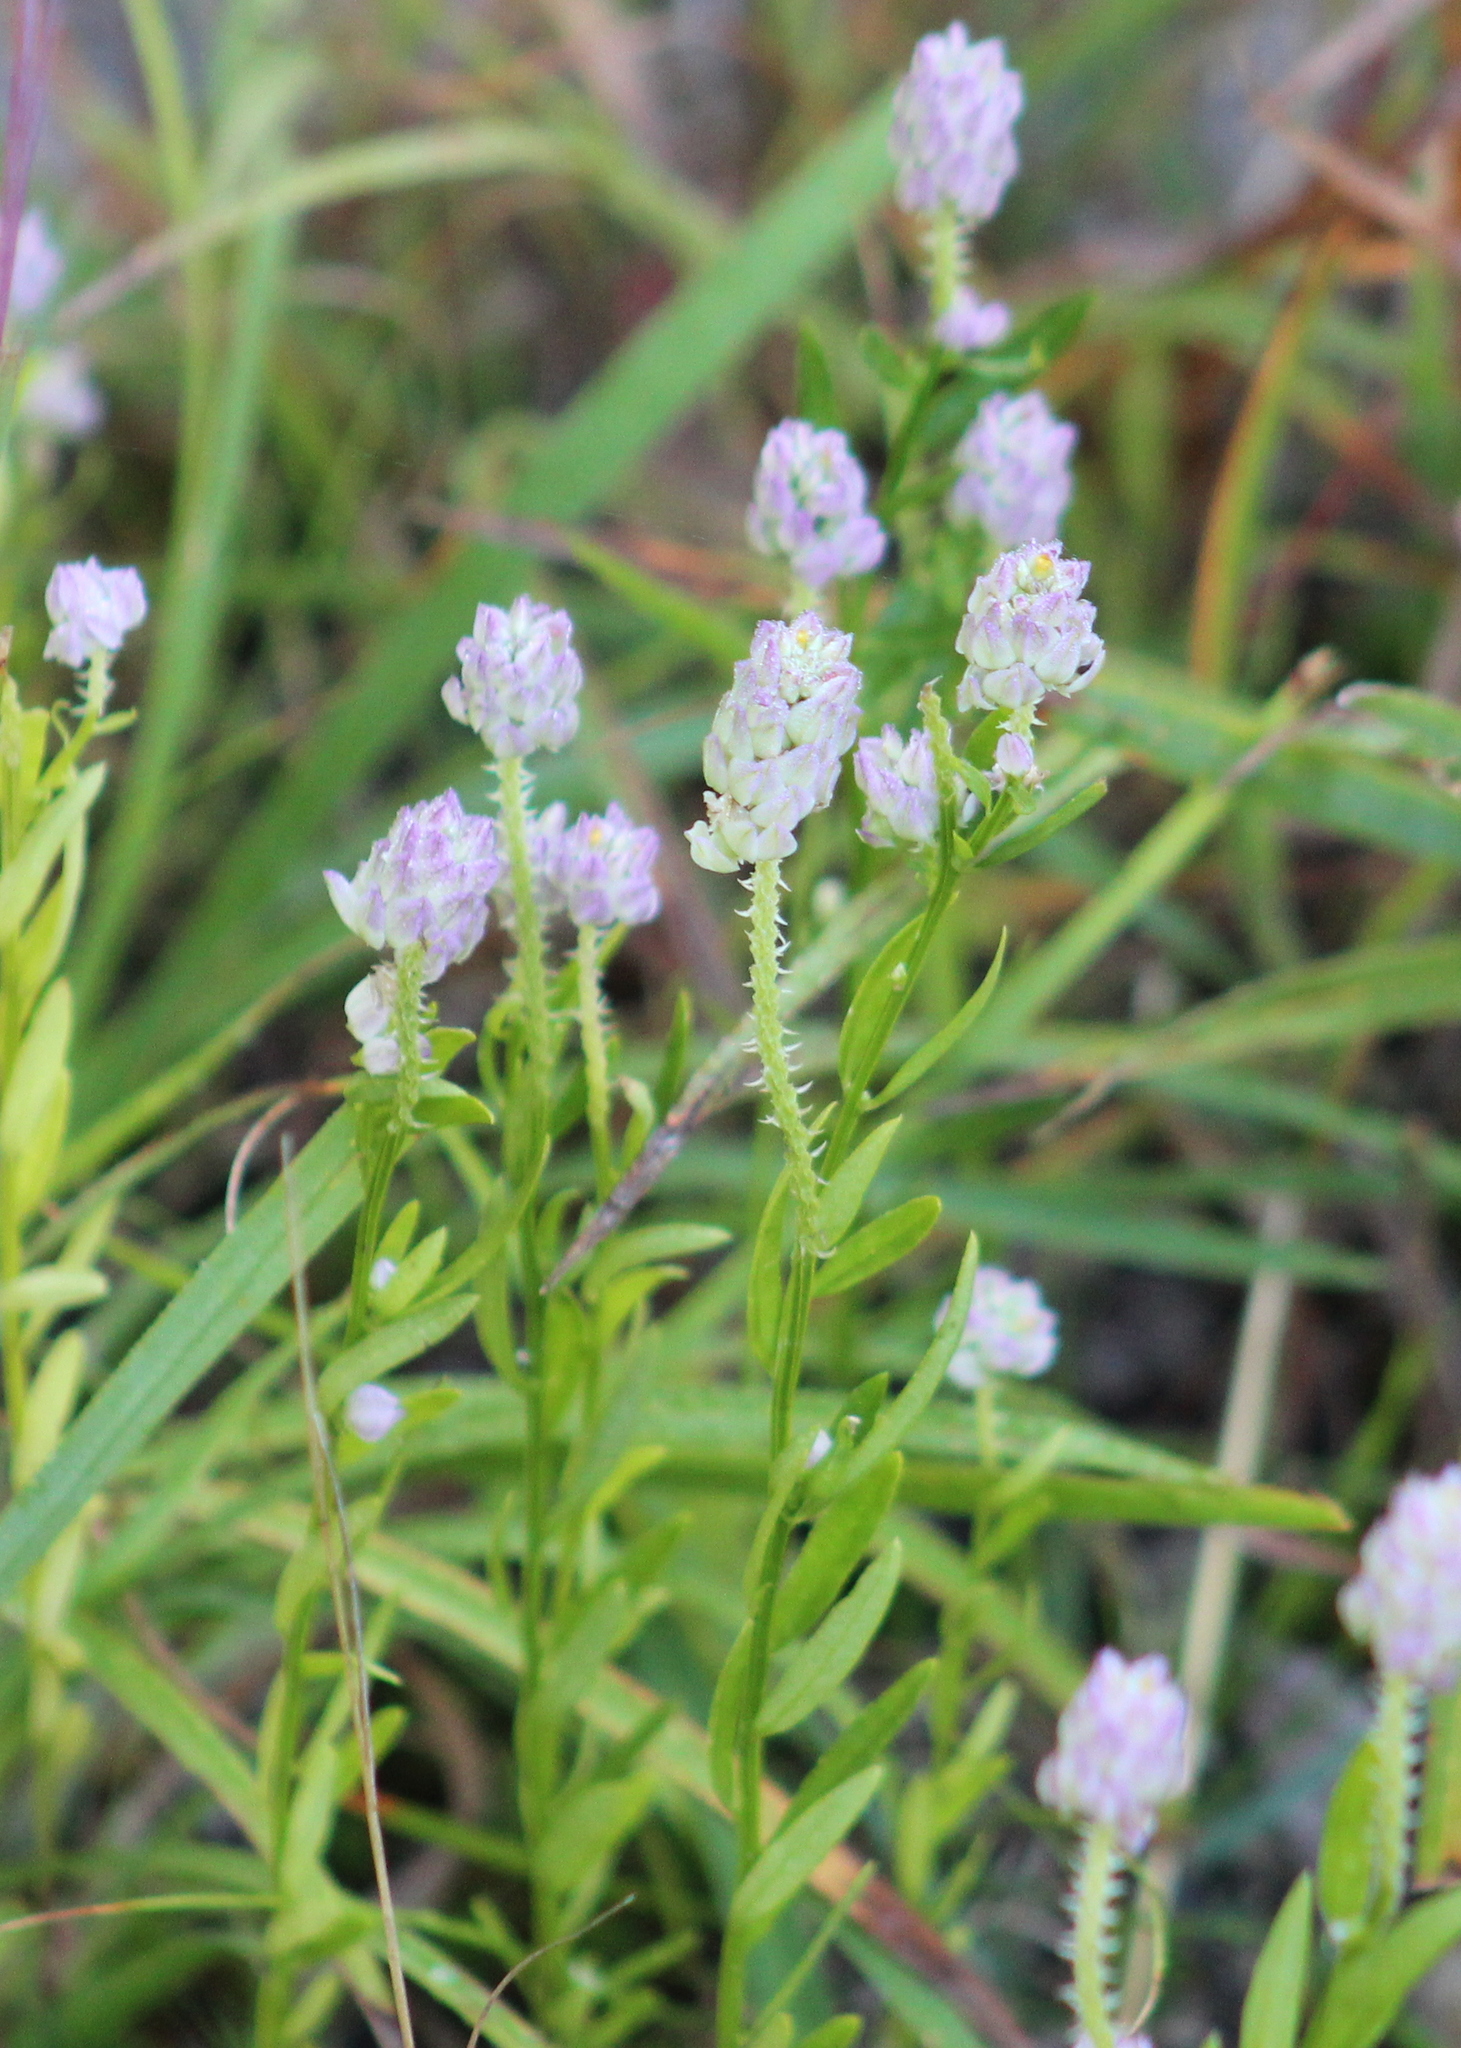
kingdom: Plantae
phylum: Tracheophyta
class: Magnoliopsida
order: Fabales
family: Polygalaceae
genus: Polygala
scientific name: Polygala sanguinea
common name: Blood milkwort
